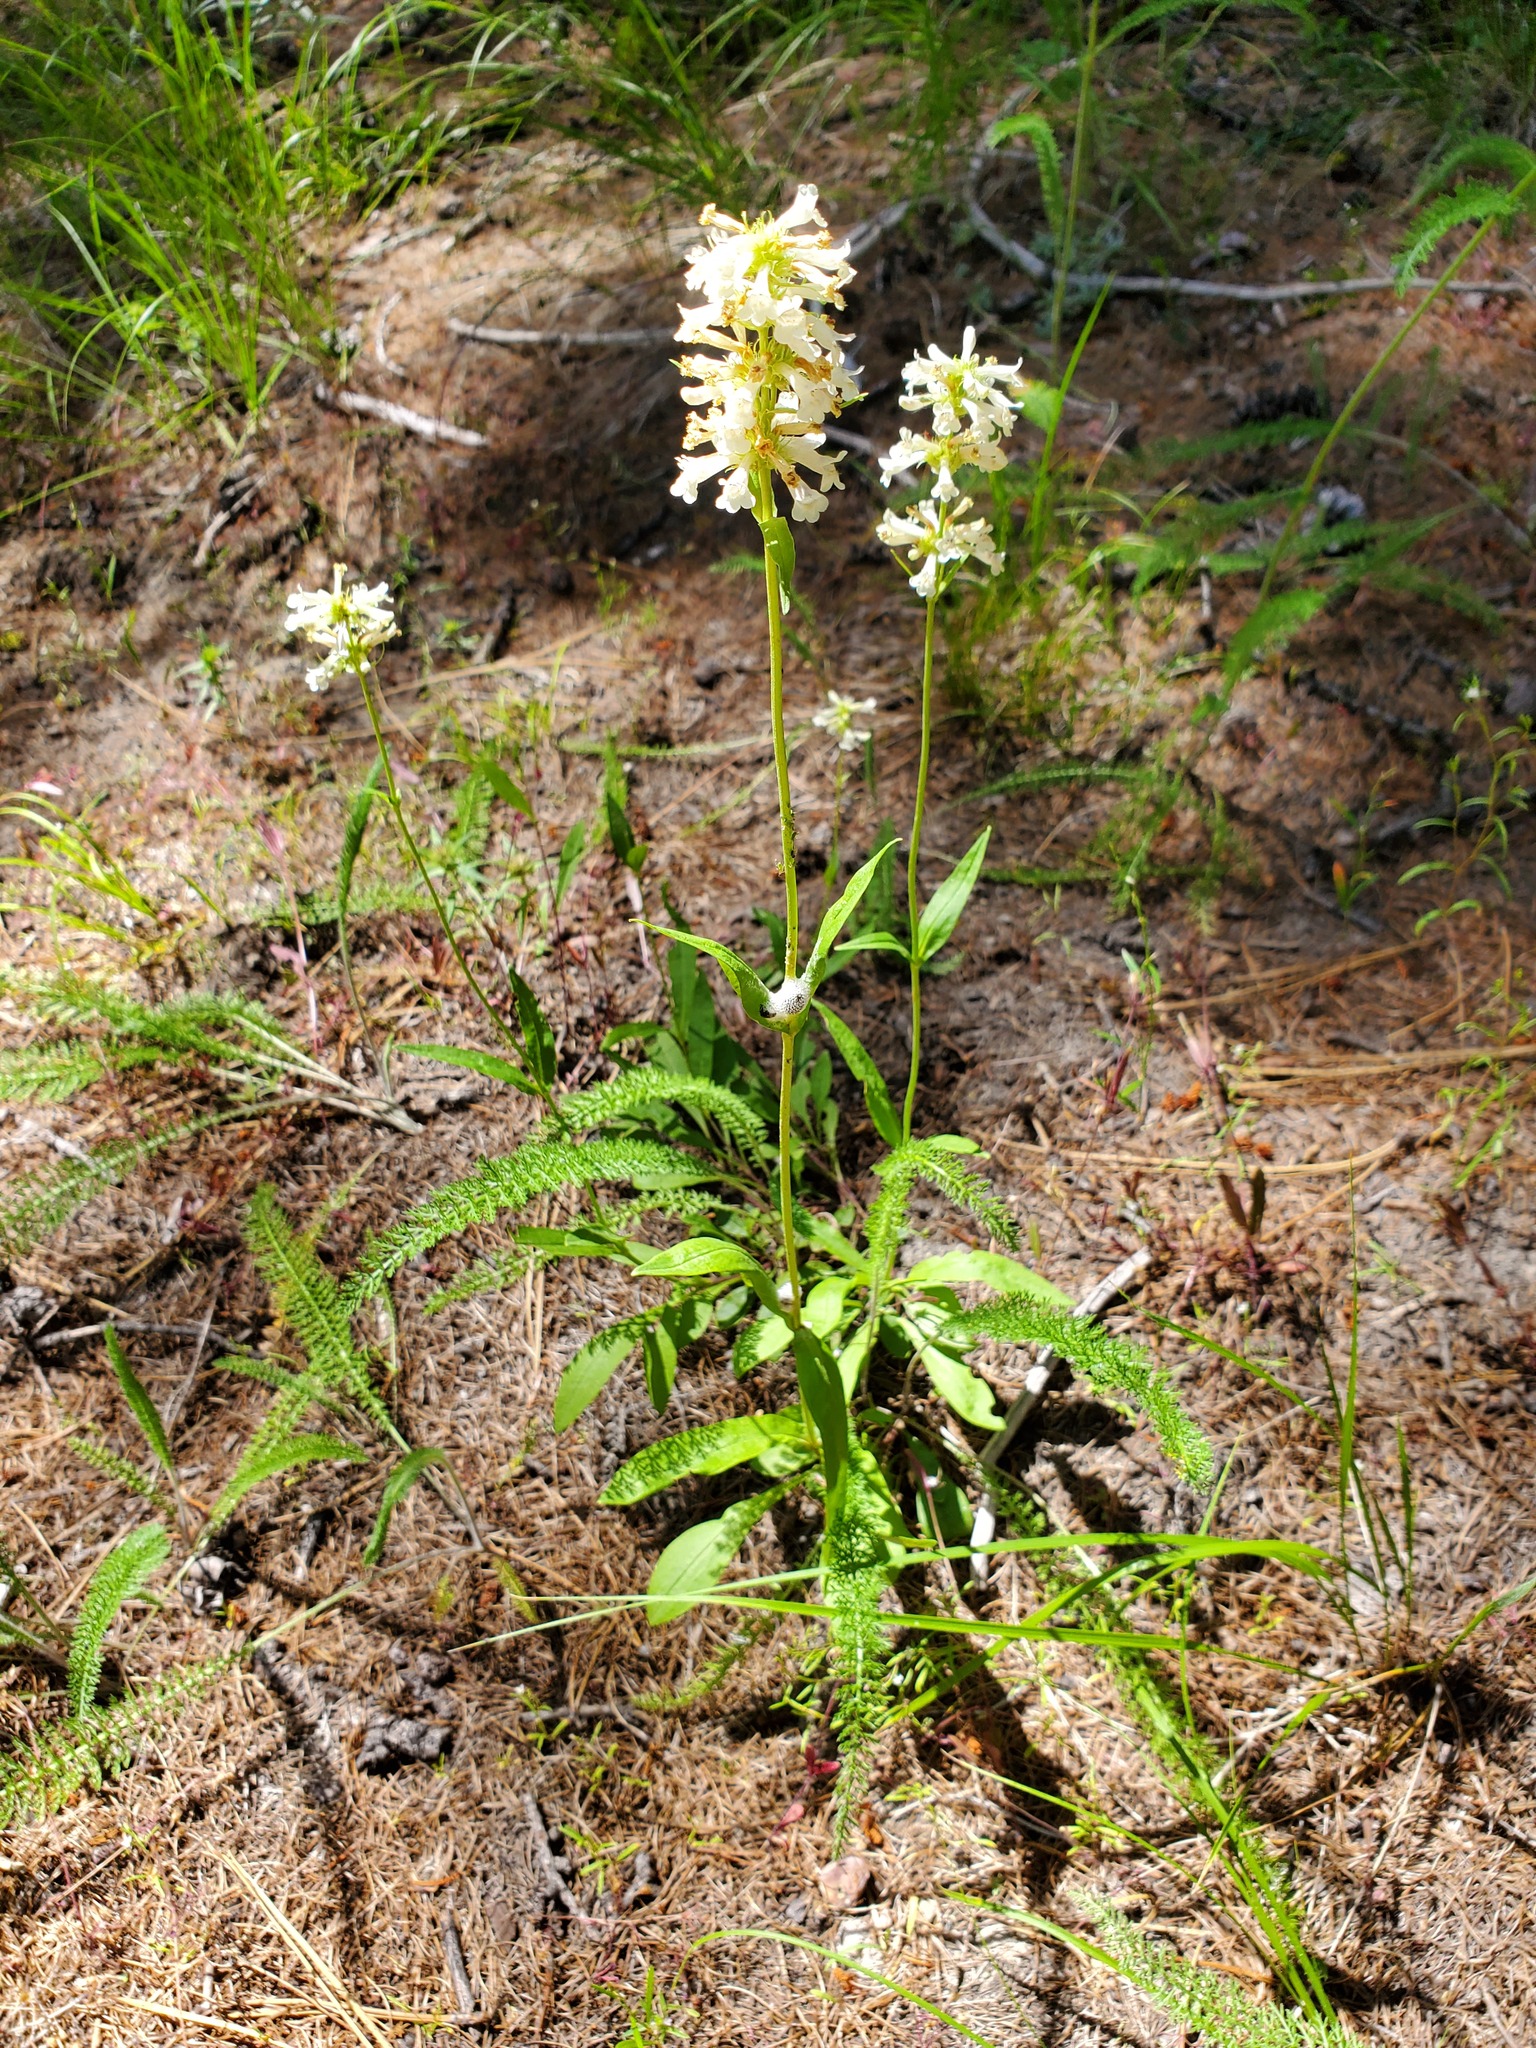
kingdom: Plantae
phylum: Tracheophyta
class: Magnoliopsida
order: Lamiales
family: Plantaginaceae
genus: Penstemon
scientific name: Penstemon confertus
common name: Lesser yellow beardtongue
